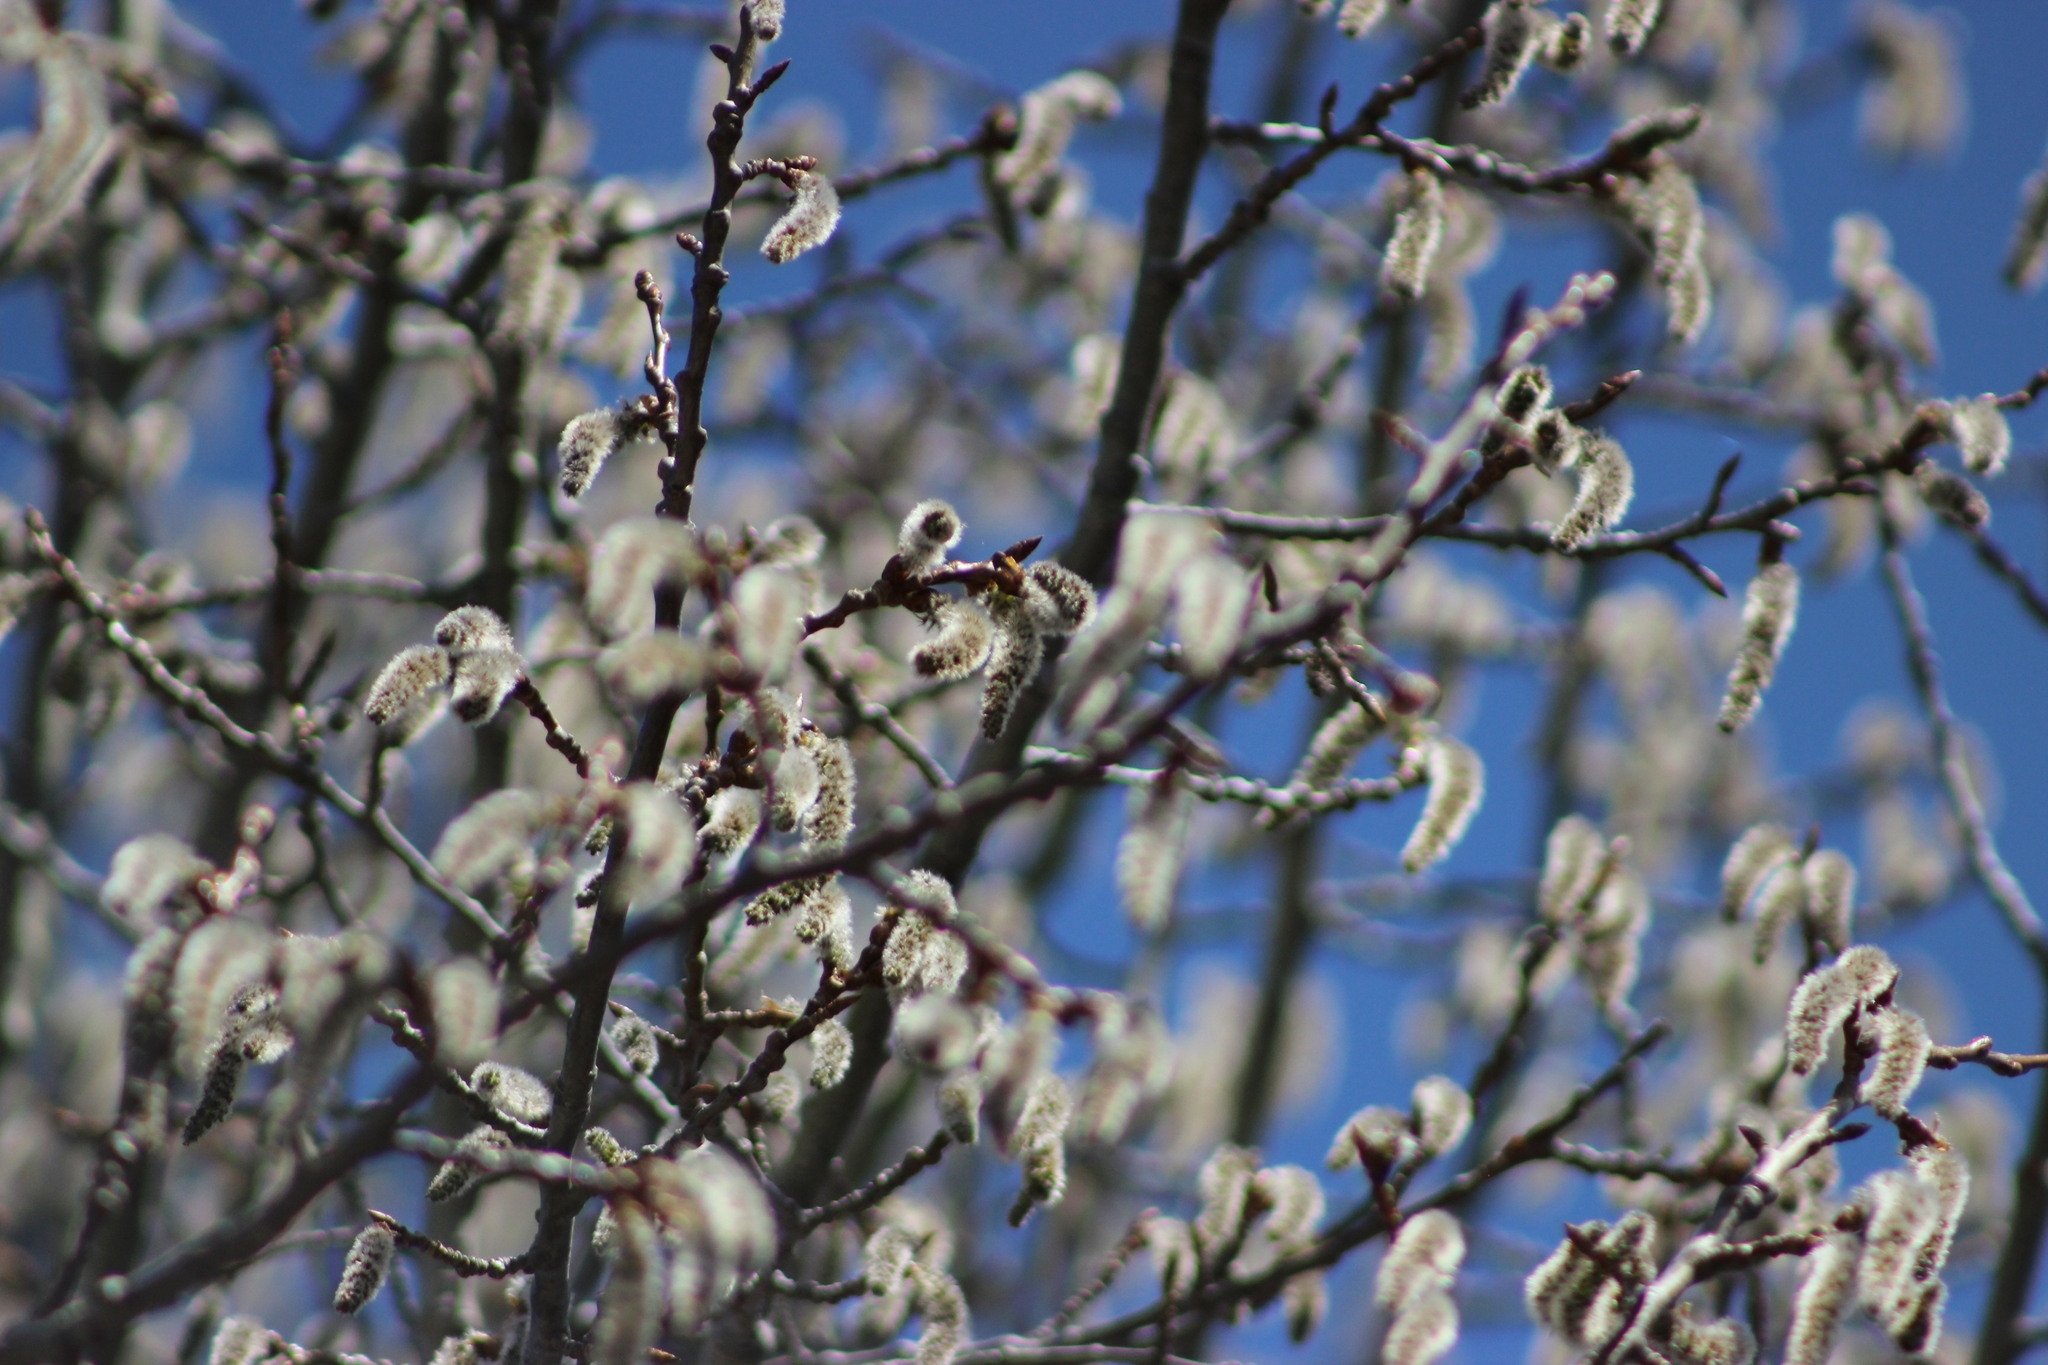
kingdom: Plantae
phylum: Tracheophyta
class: Magnoliopsida
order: Malpighiales
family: Salicaceae
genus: Populus
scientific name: Populus tremula
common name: European aspen
